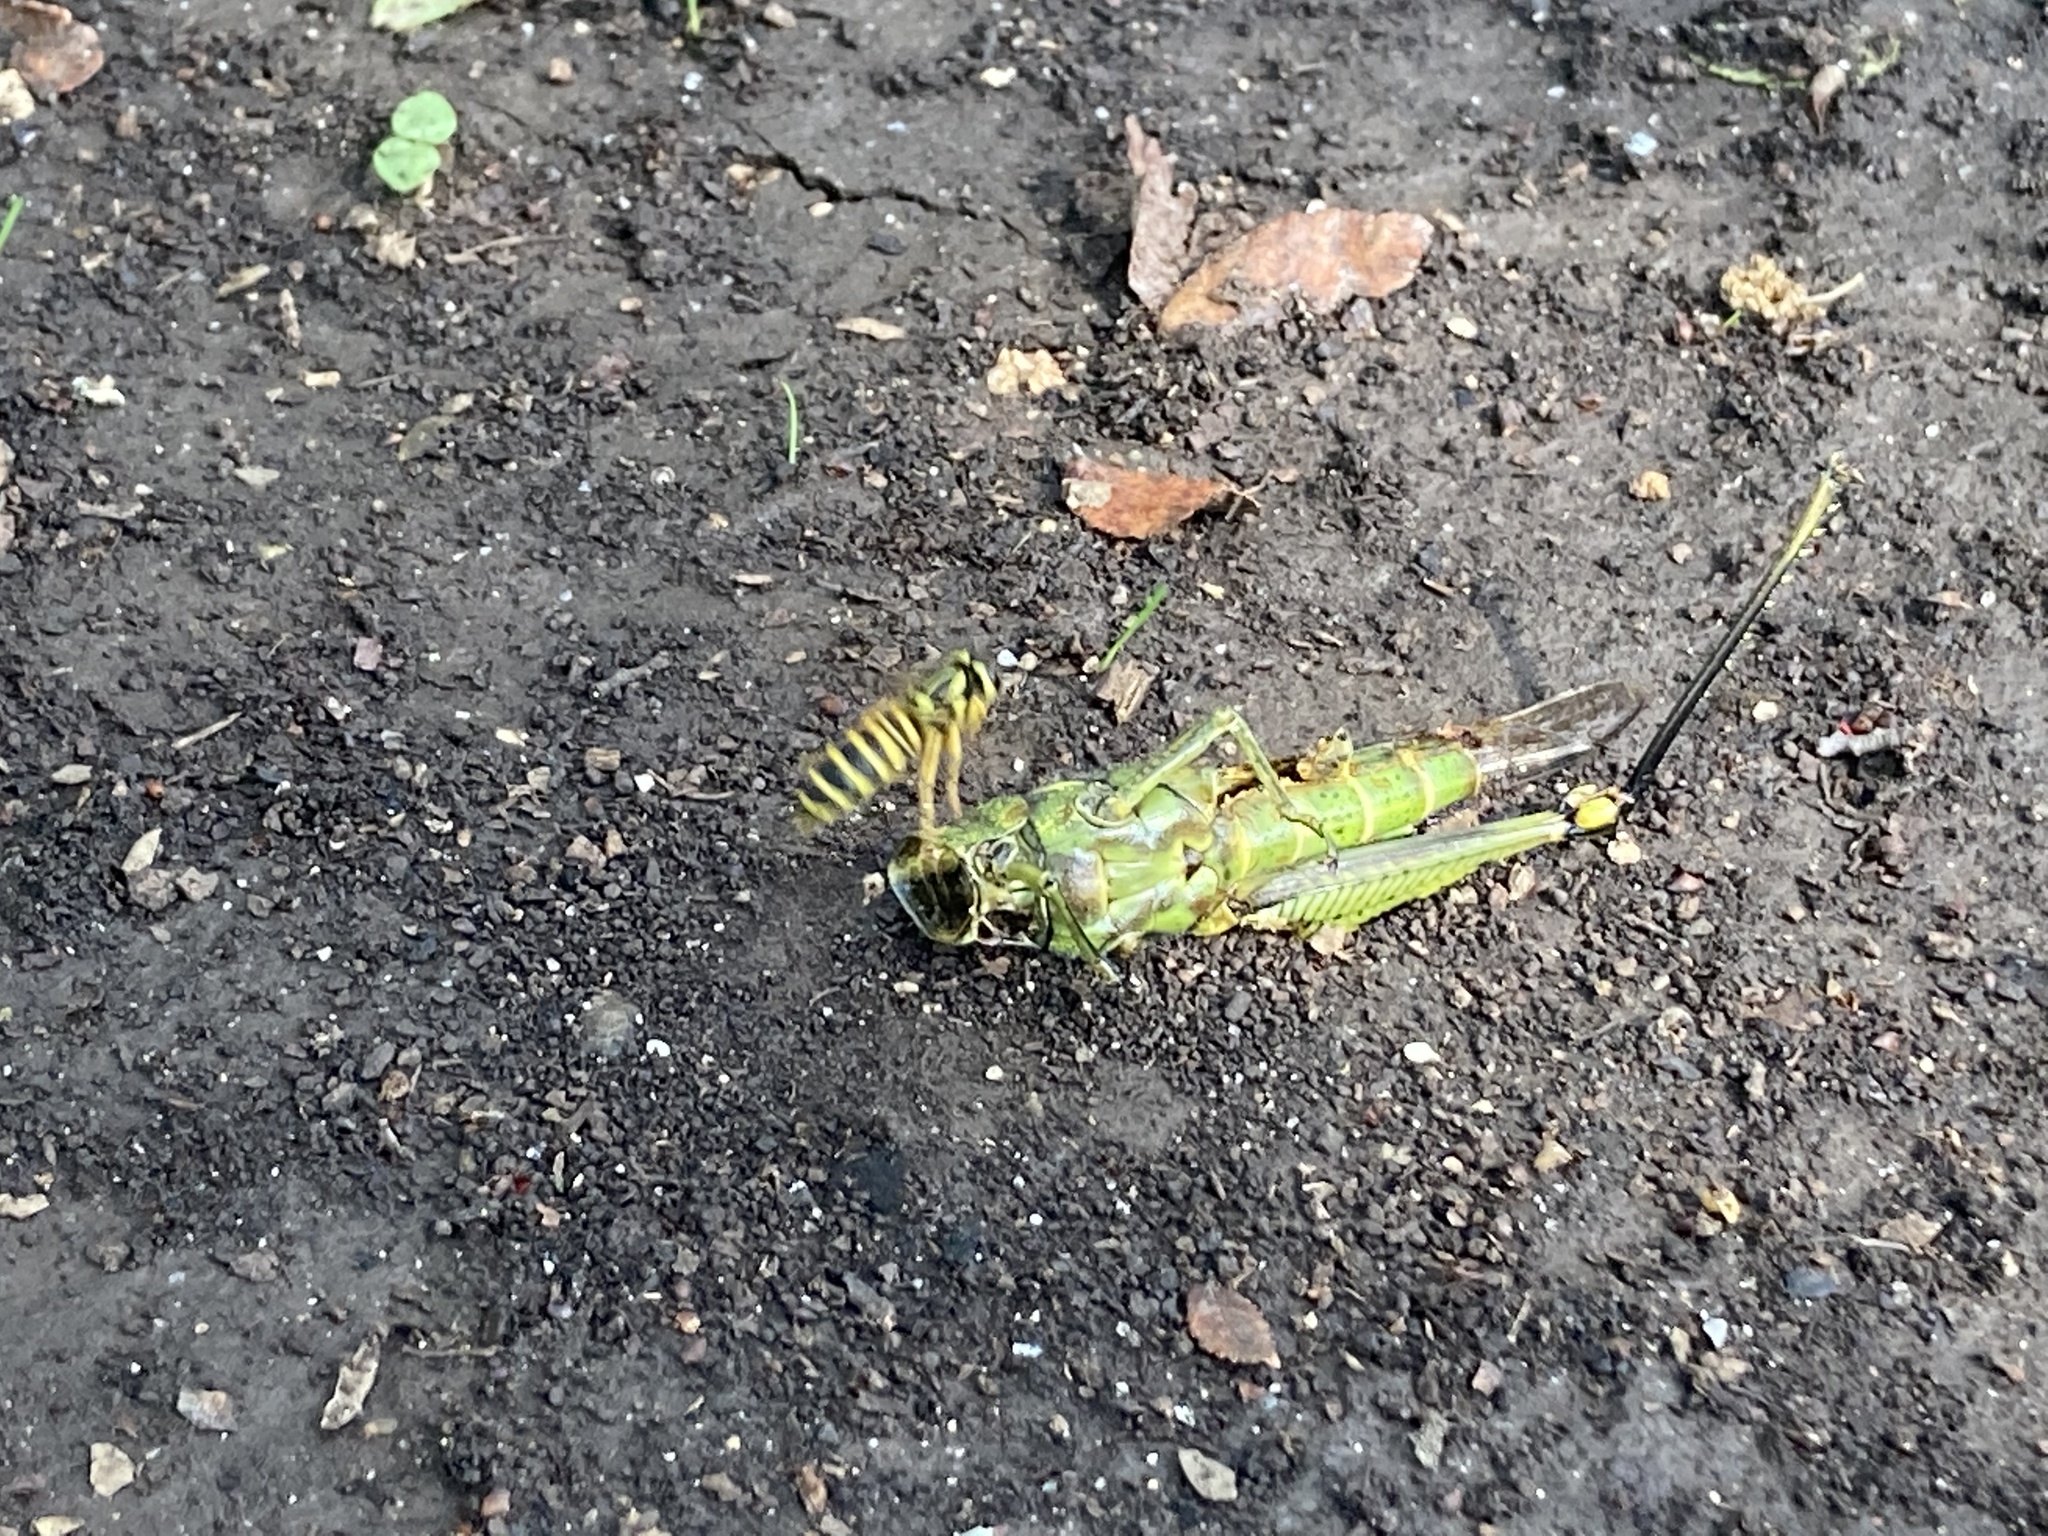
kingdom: Animalia
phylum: Arthropoda
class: Insecta
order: Hymenoptera
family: Vespidae
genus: Vespula
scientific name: Vespula squamosa
